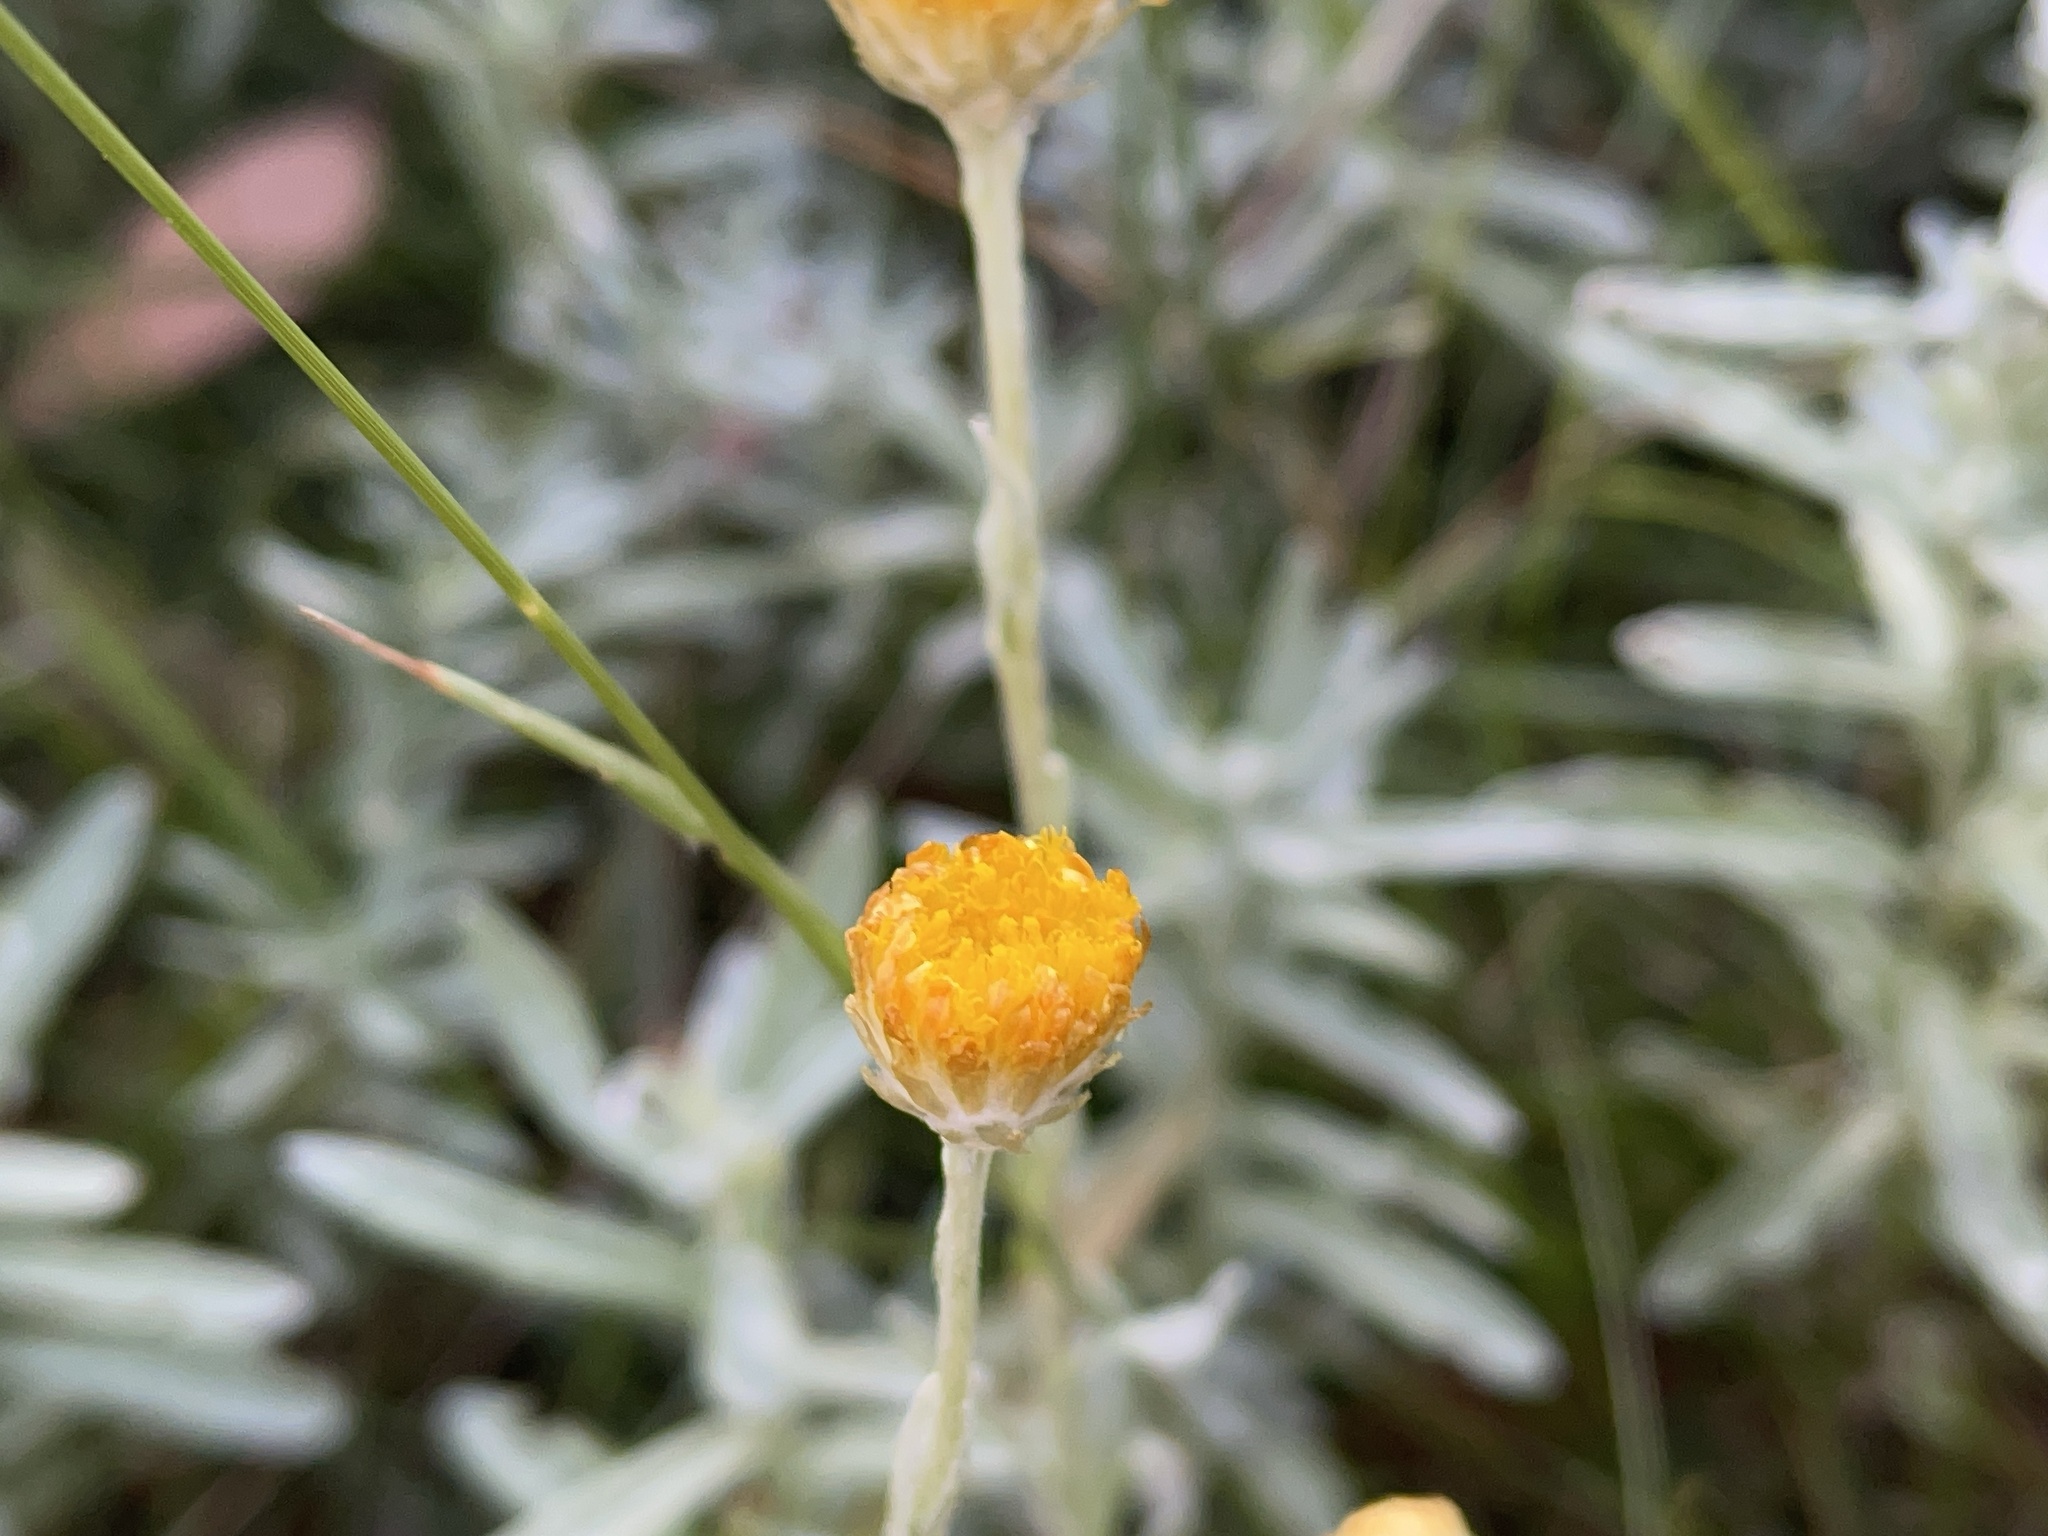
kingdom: Plantae
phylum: Tracheophyta
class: Magnoliopsida
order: Asterales
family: Asteraceae
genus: Coronidium
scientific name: Coronidium monticola
